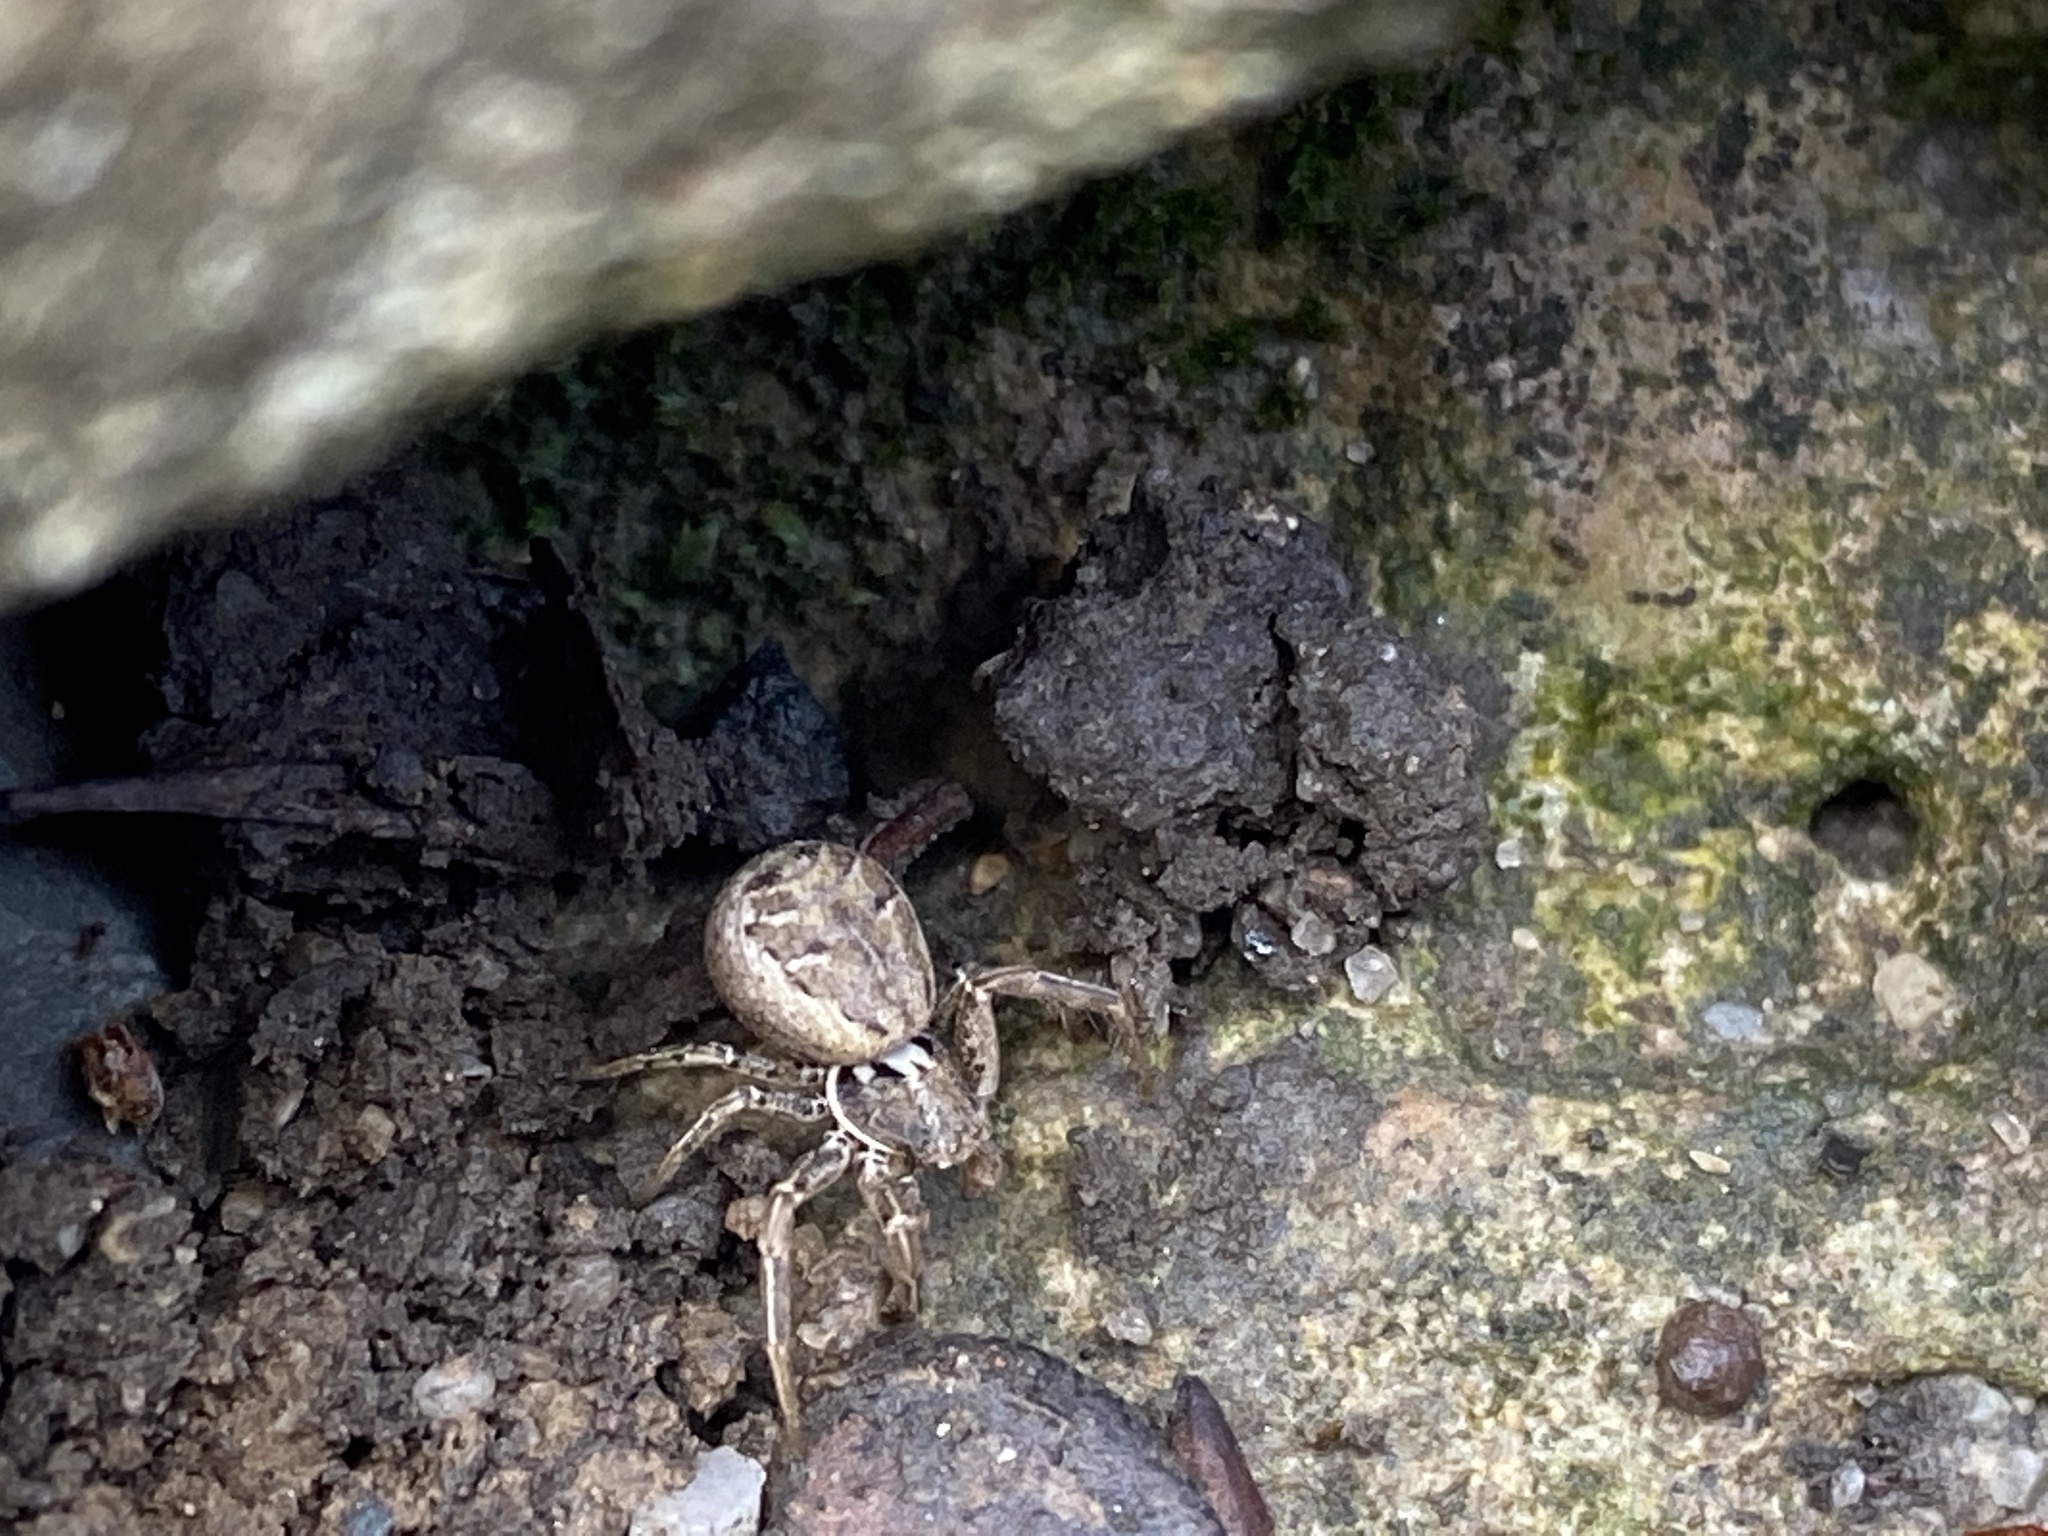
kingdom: Animalia
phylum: Arthropoda
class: Arachnida
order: Araneae
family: Thomisidae
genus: Xysticus
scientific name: Xysticus
